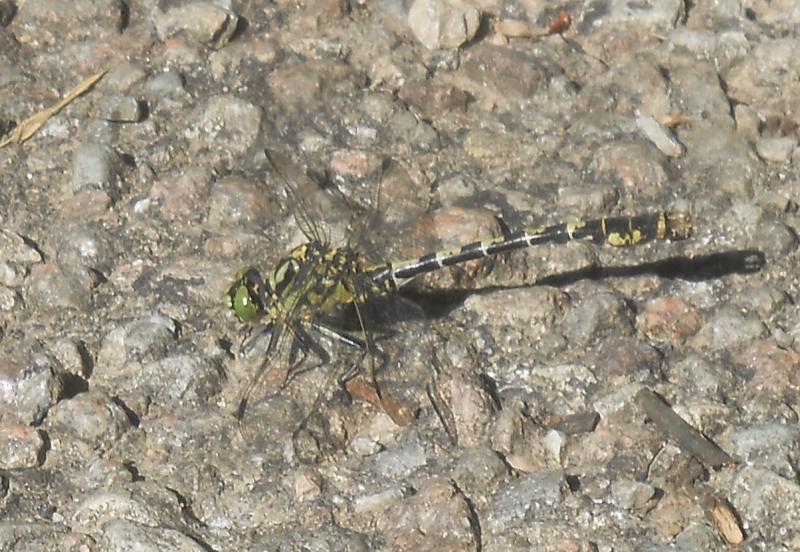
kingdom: Animalia
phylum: Arthropoda
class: Insecta
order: Odonata
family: Gomphidae
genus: Onychogomphus
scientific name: Onychogomphus forcipatus
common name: Small pincertail
